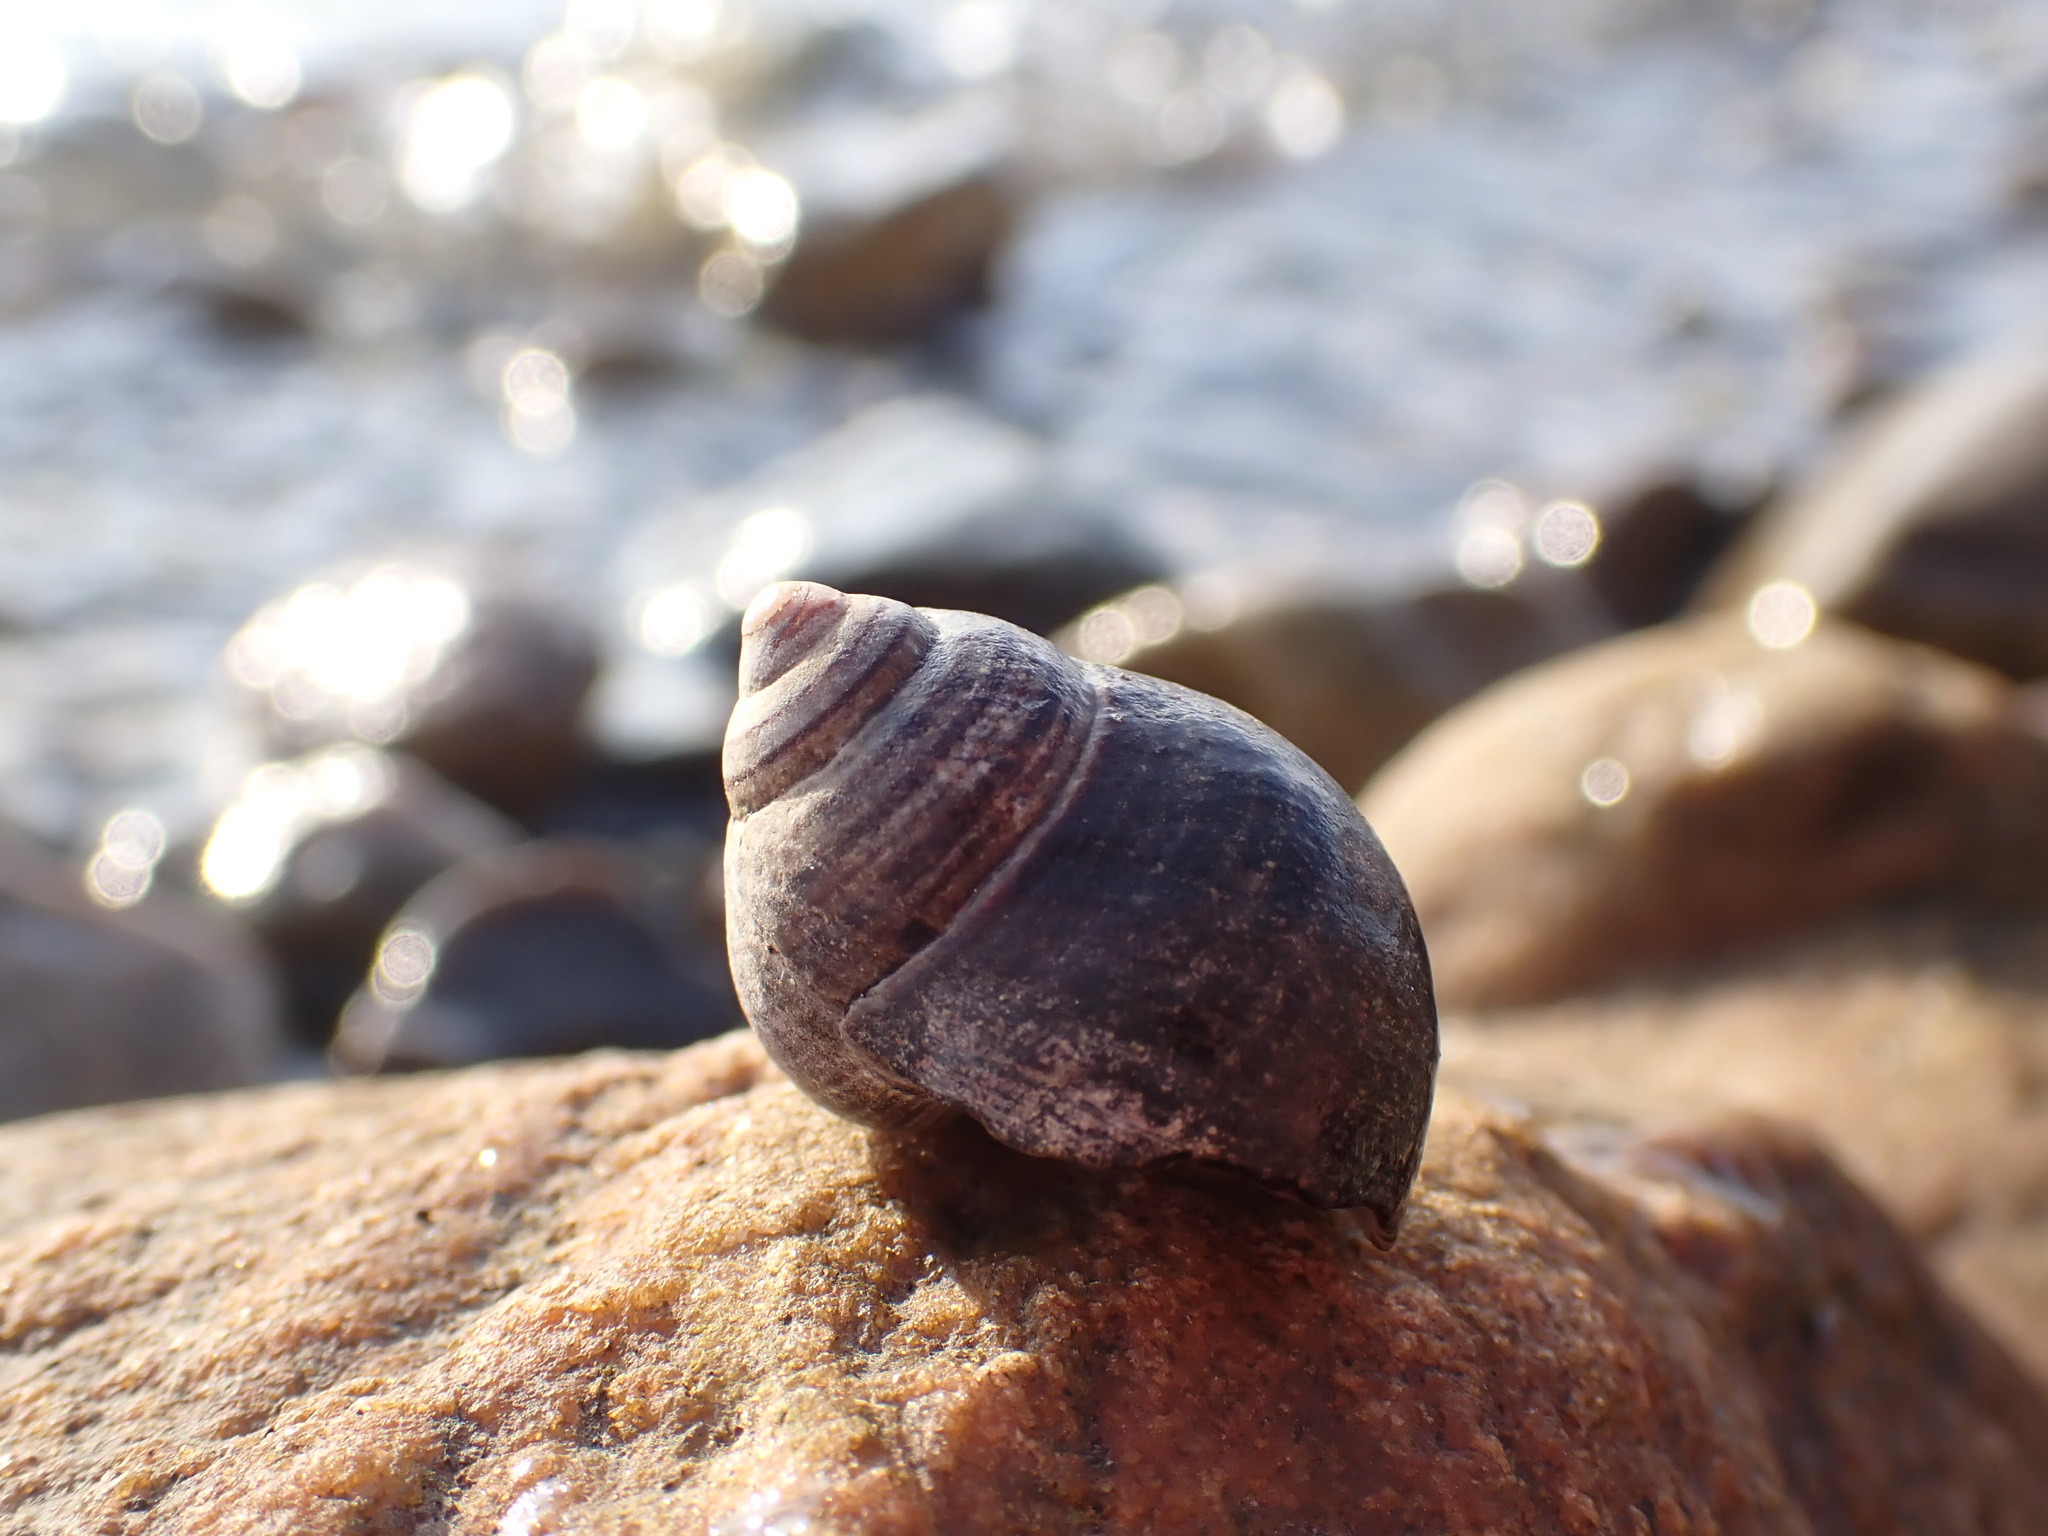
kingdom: Animalia
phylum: Mollusca
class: Gastropoda
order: Littorinimorpha
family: Littorinidae
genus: Littorina
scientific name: Littorina littorea
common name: Common periwinkle
